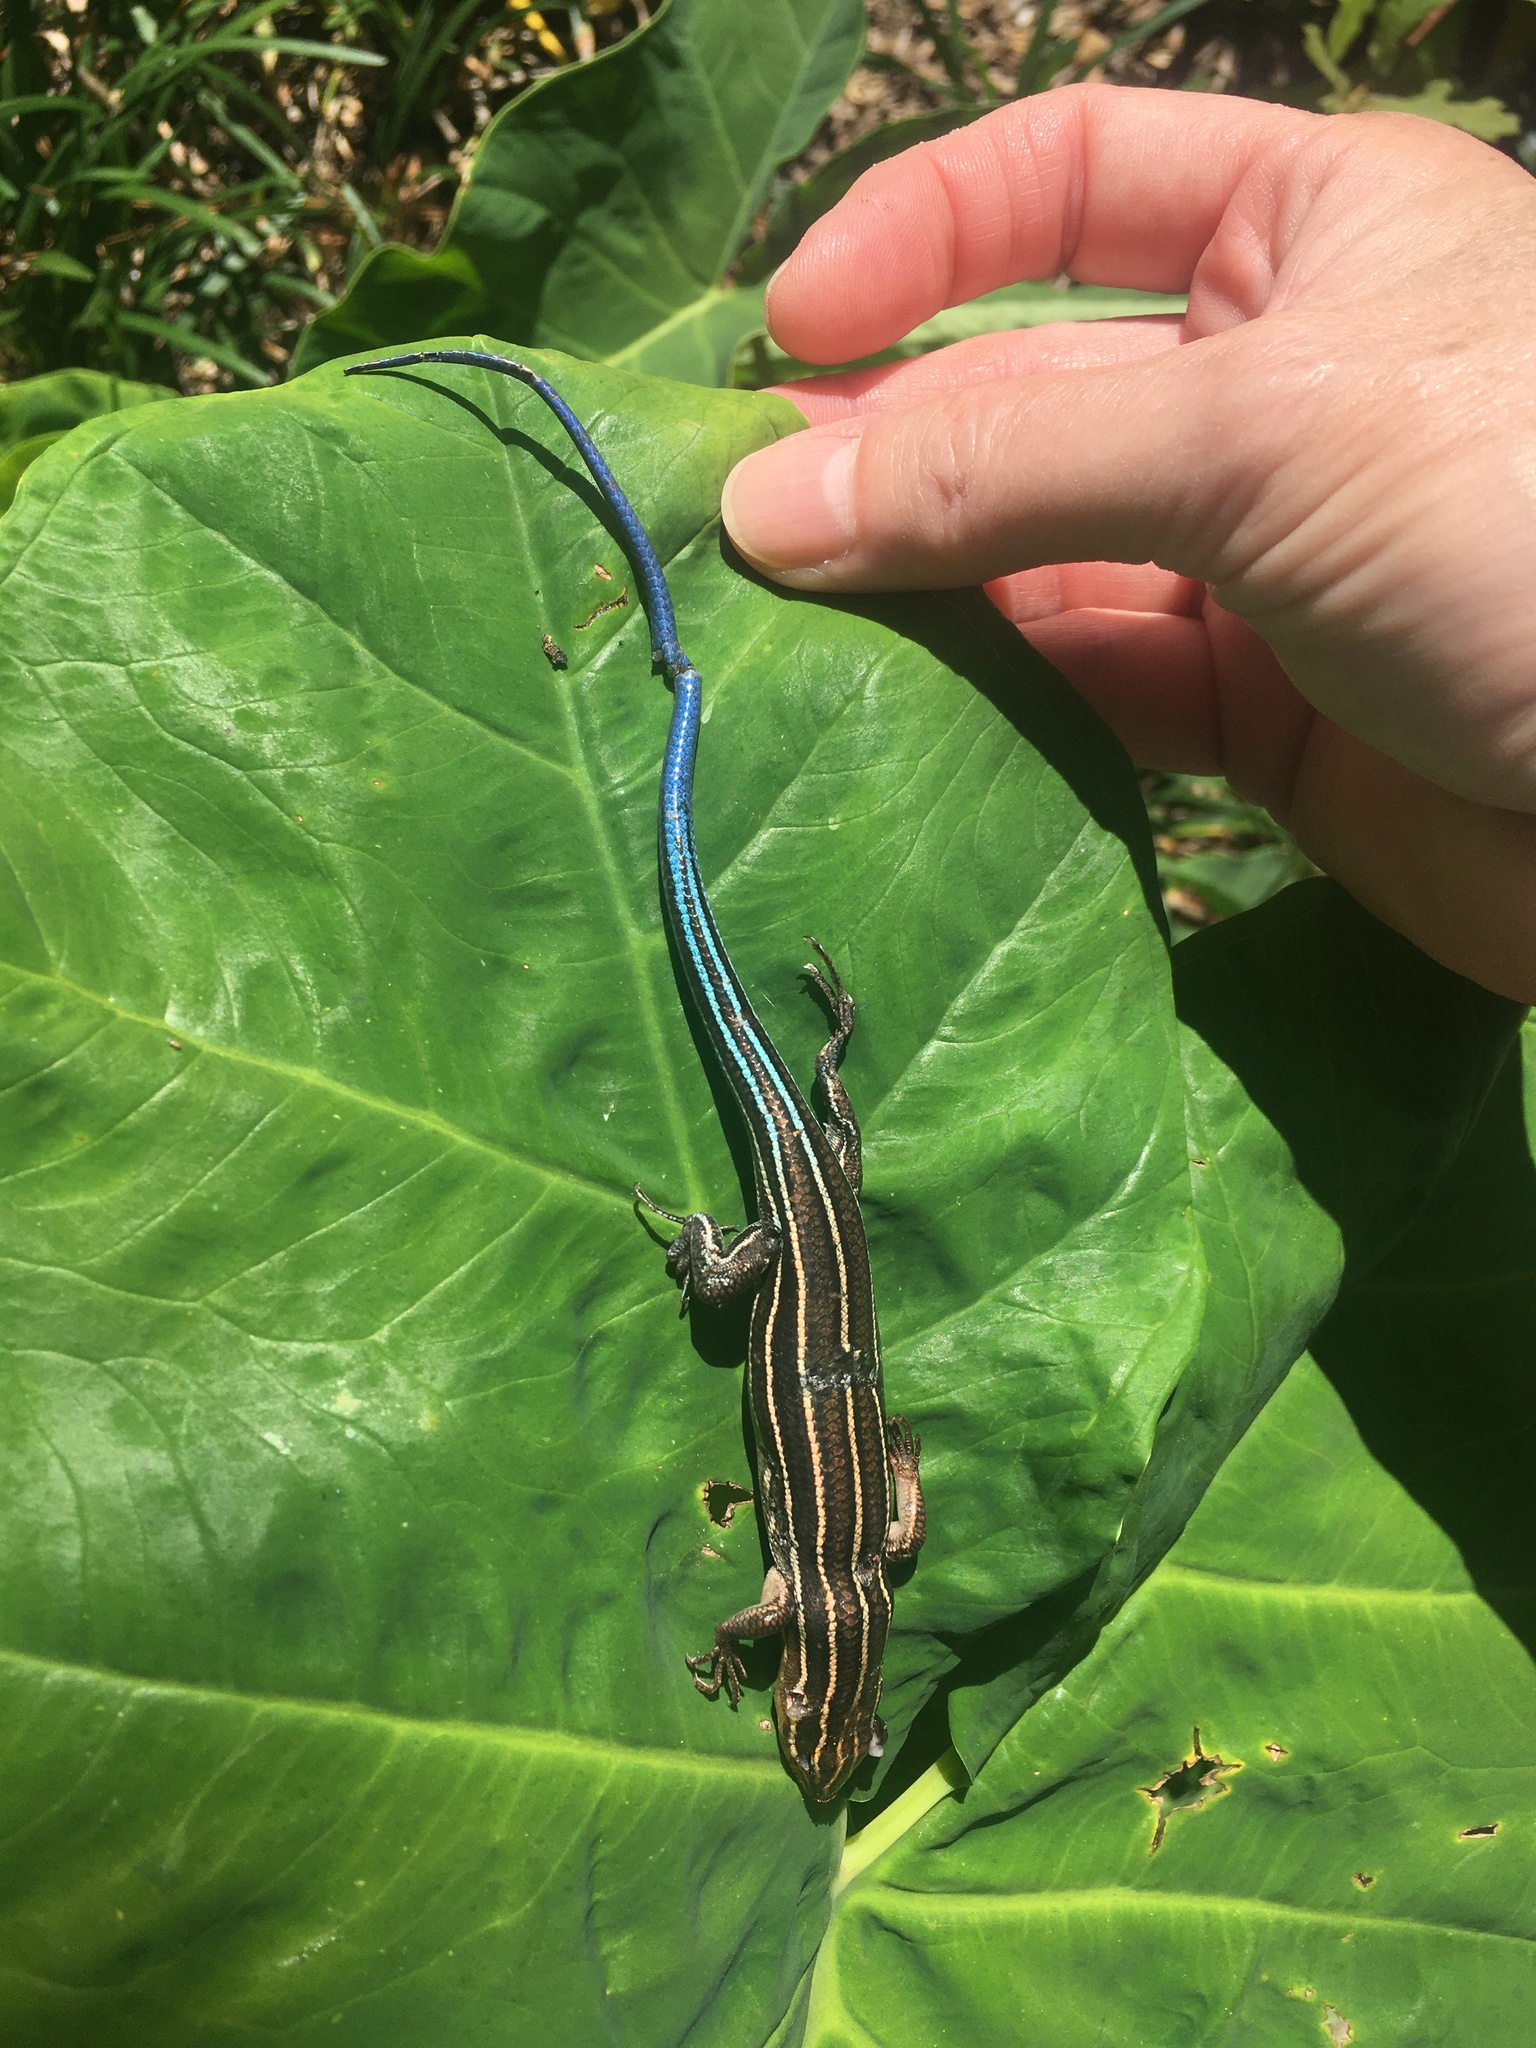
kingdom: Animalia
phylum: Chordata
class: Squamata
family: Scincidae
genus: Plestiodon
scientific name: Plestiodon laticeps
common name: Broadhead skink
